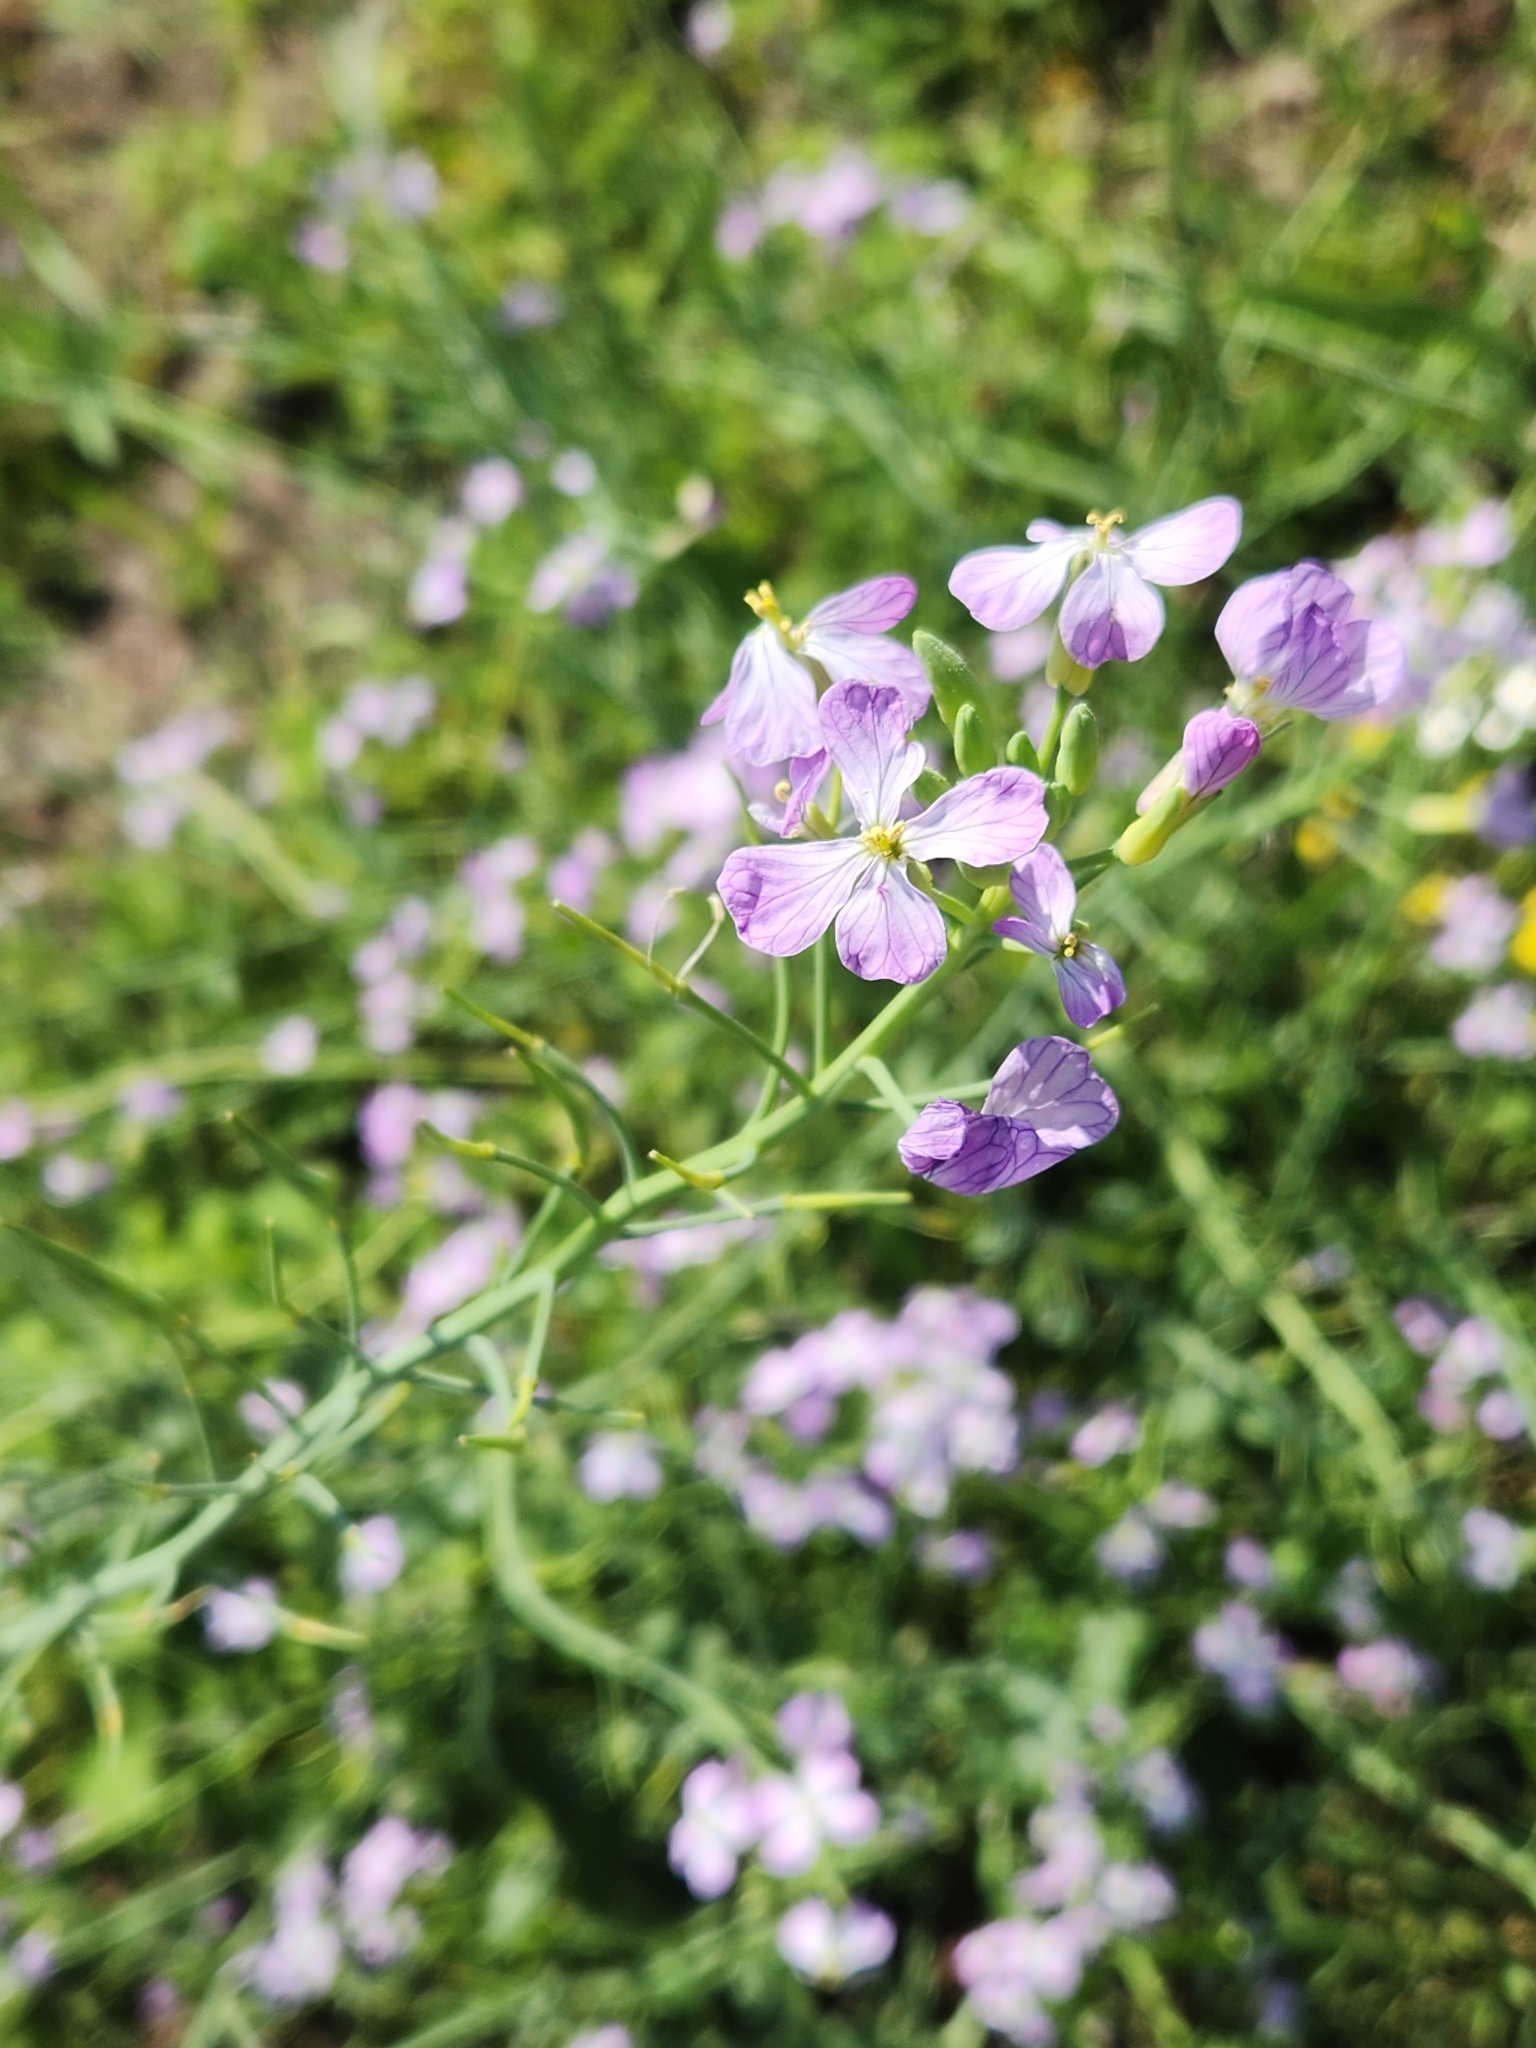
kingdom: Plantae
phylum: Tracheophyta
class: Magnoliopsida
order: Brassicales
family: Brassicaceae
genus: Raphanus
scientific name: Raphanus sativus
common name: Cultivated radish
